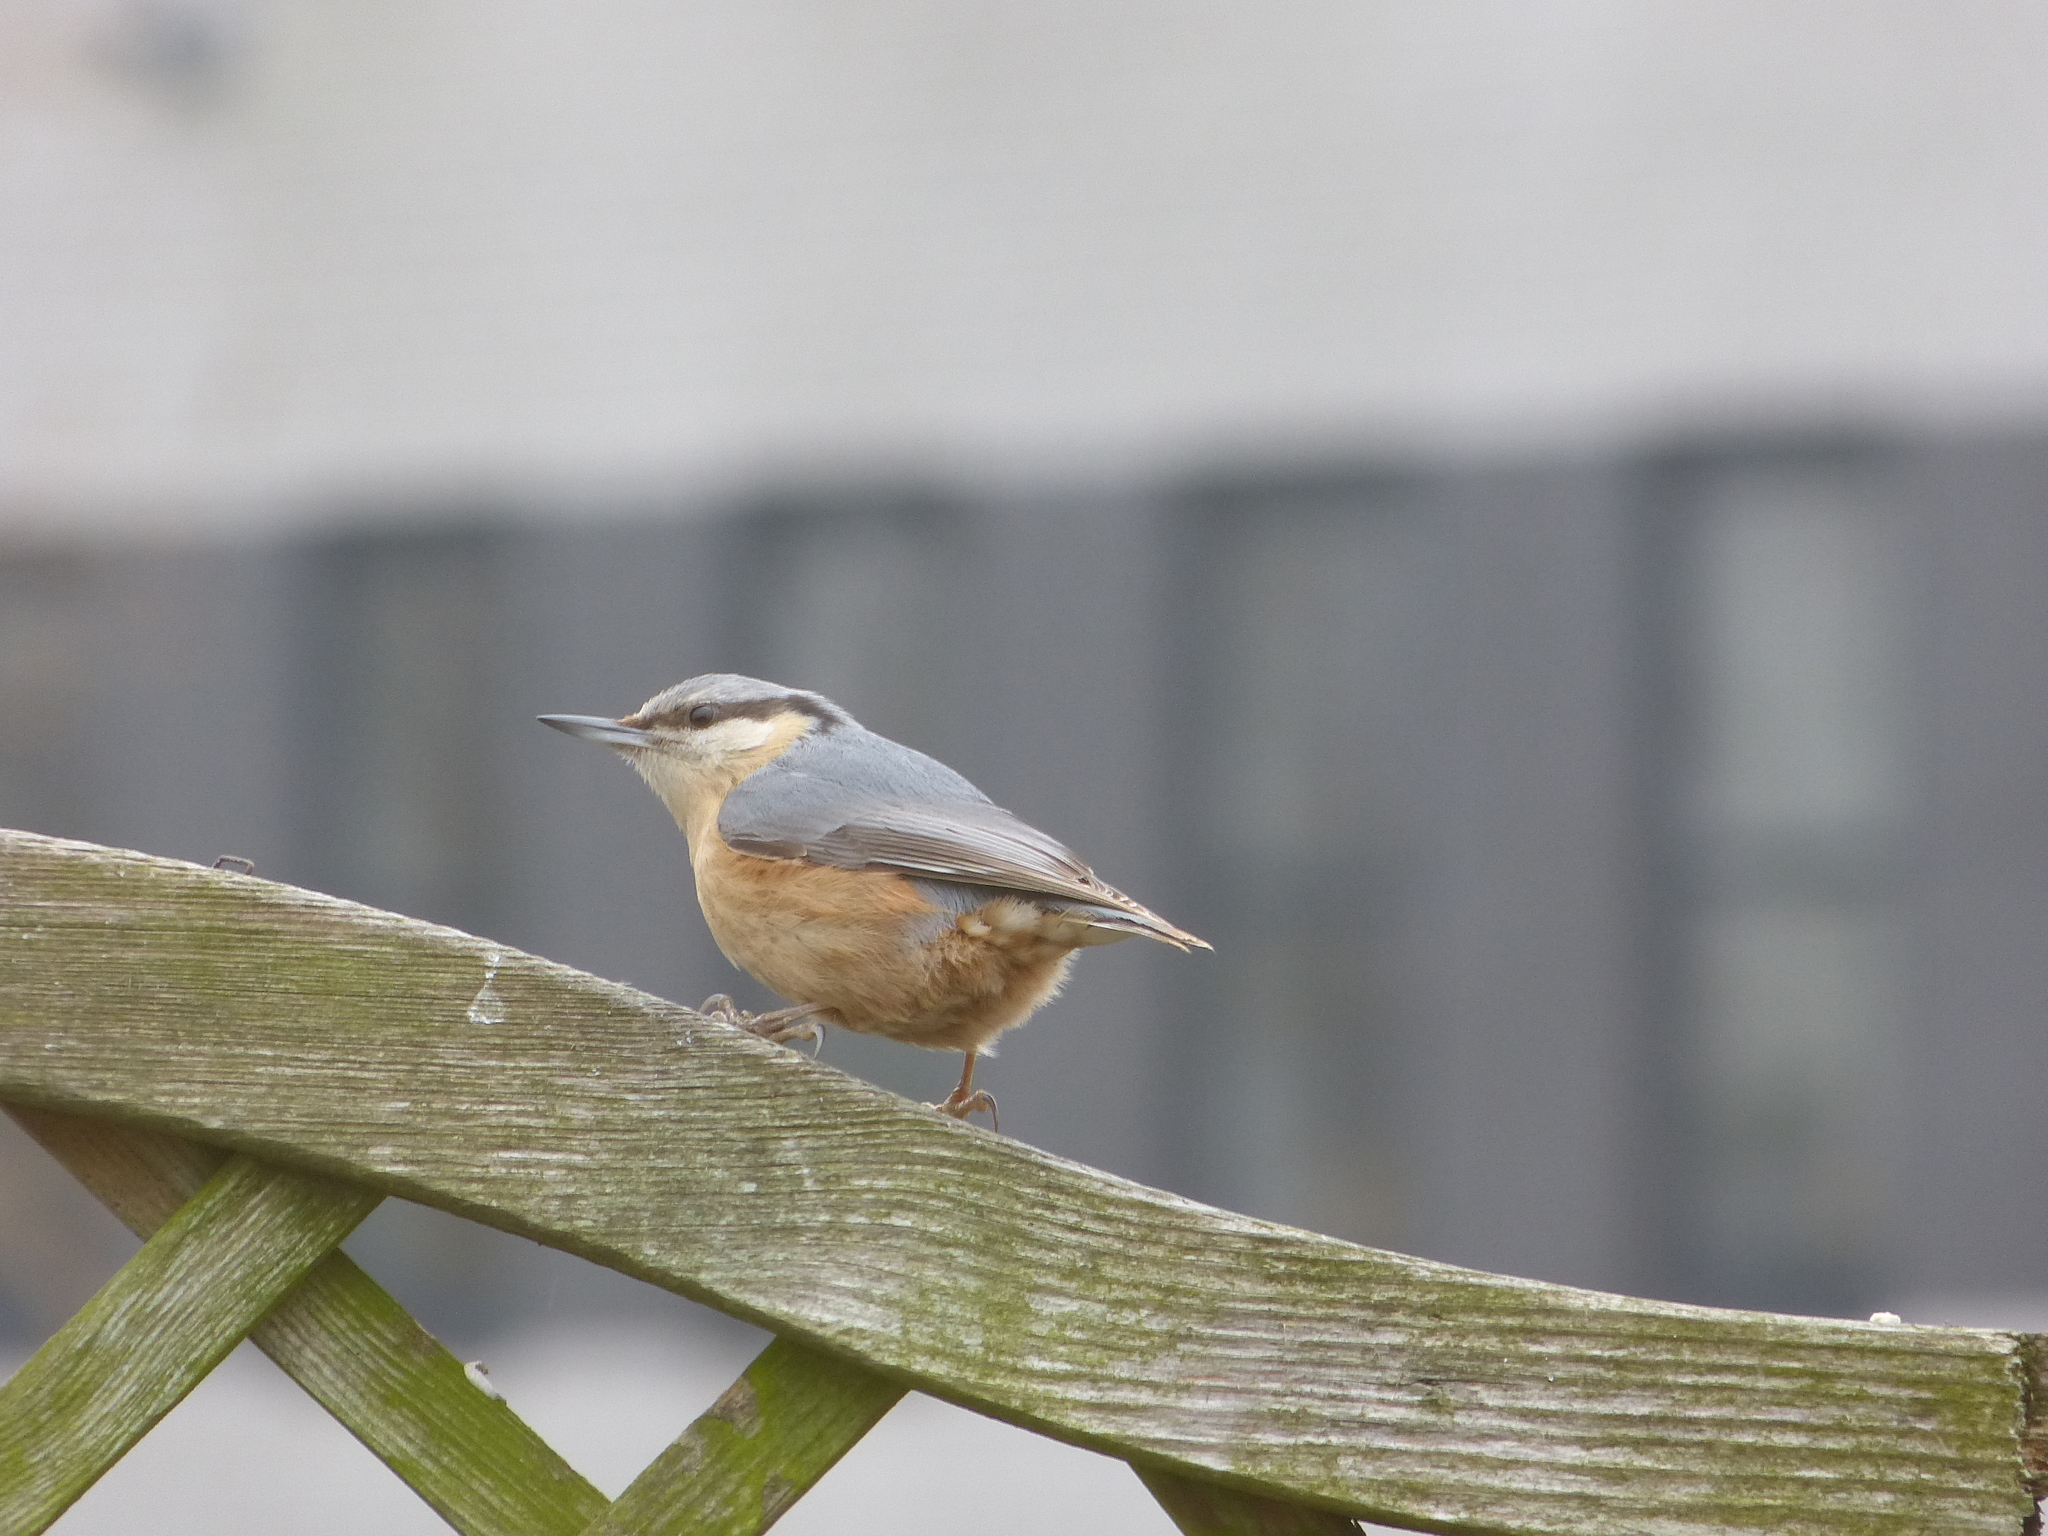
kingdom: Animalia
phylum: Chordata
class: Aves
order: Passeriformes
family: Sittidae
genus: Sitta
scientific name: Sitta europaea
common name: Eurasian nuthatch
